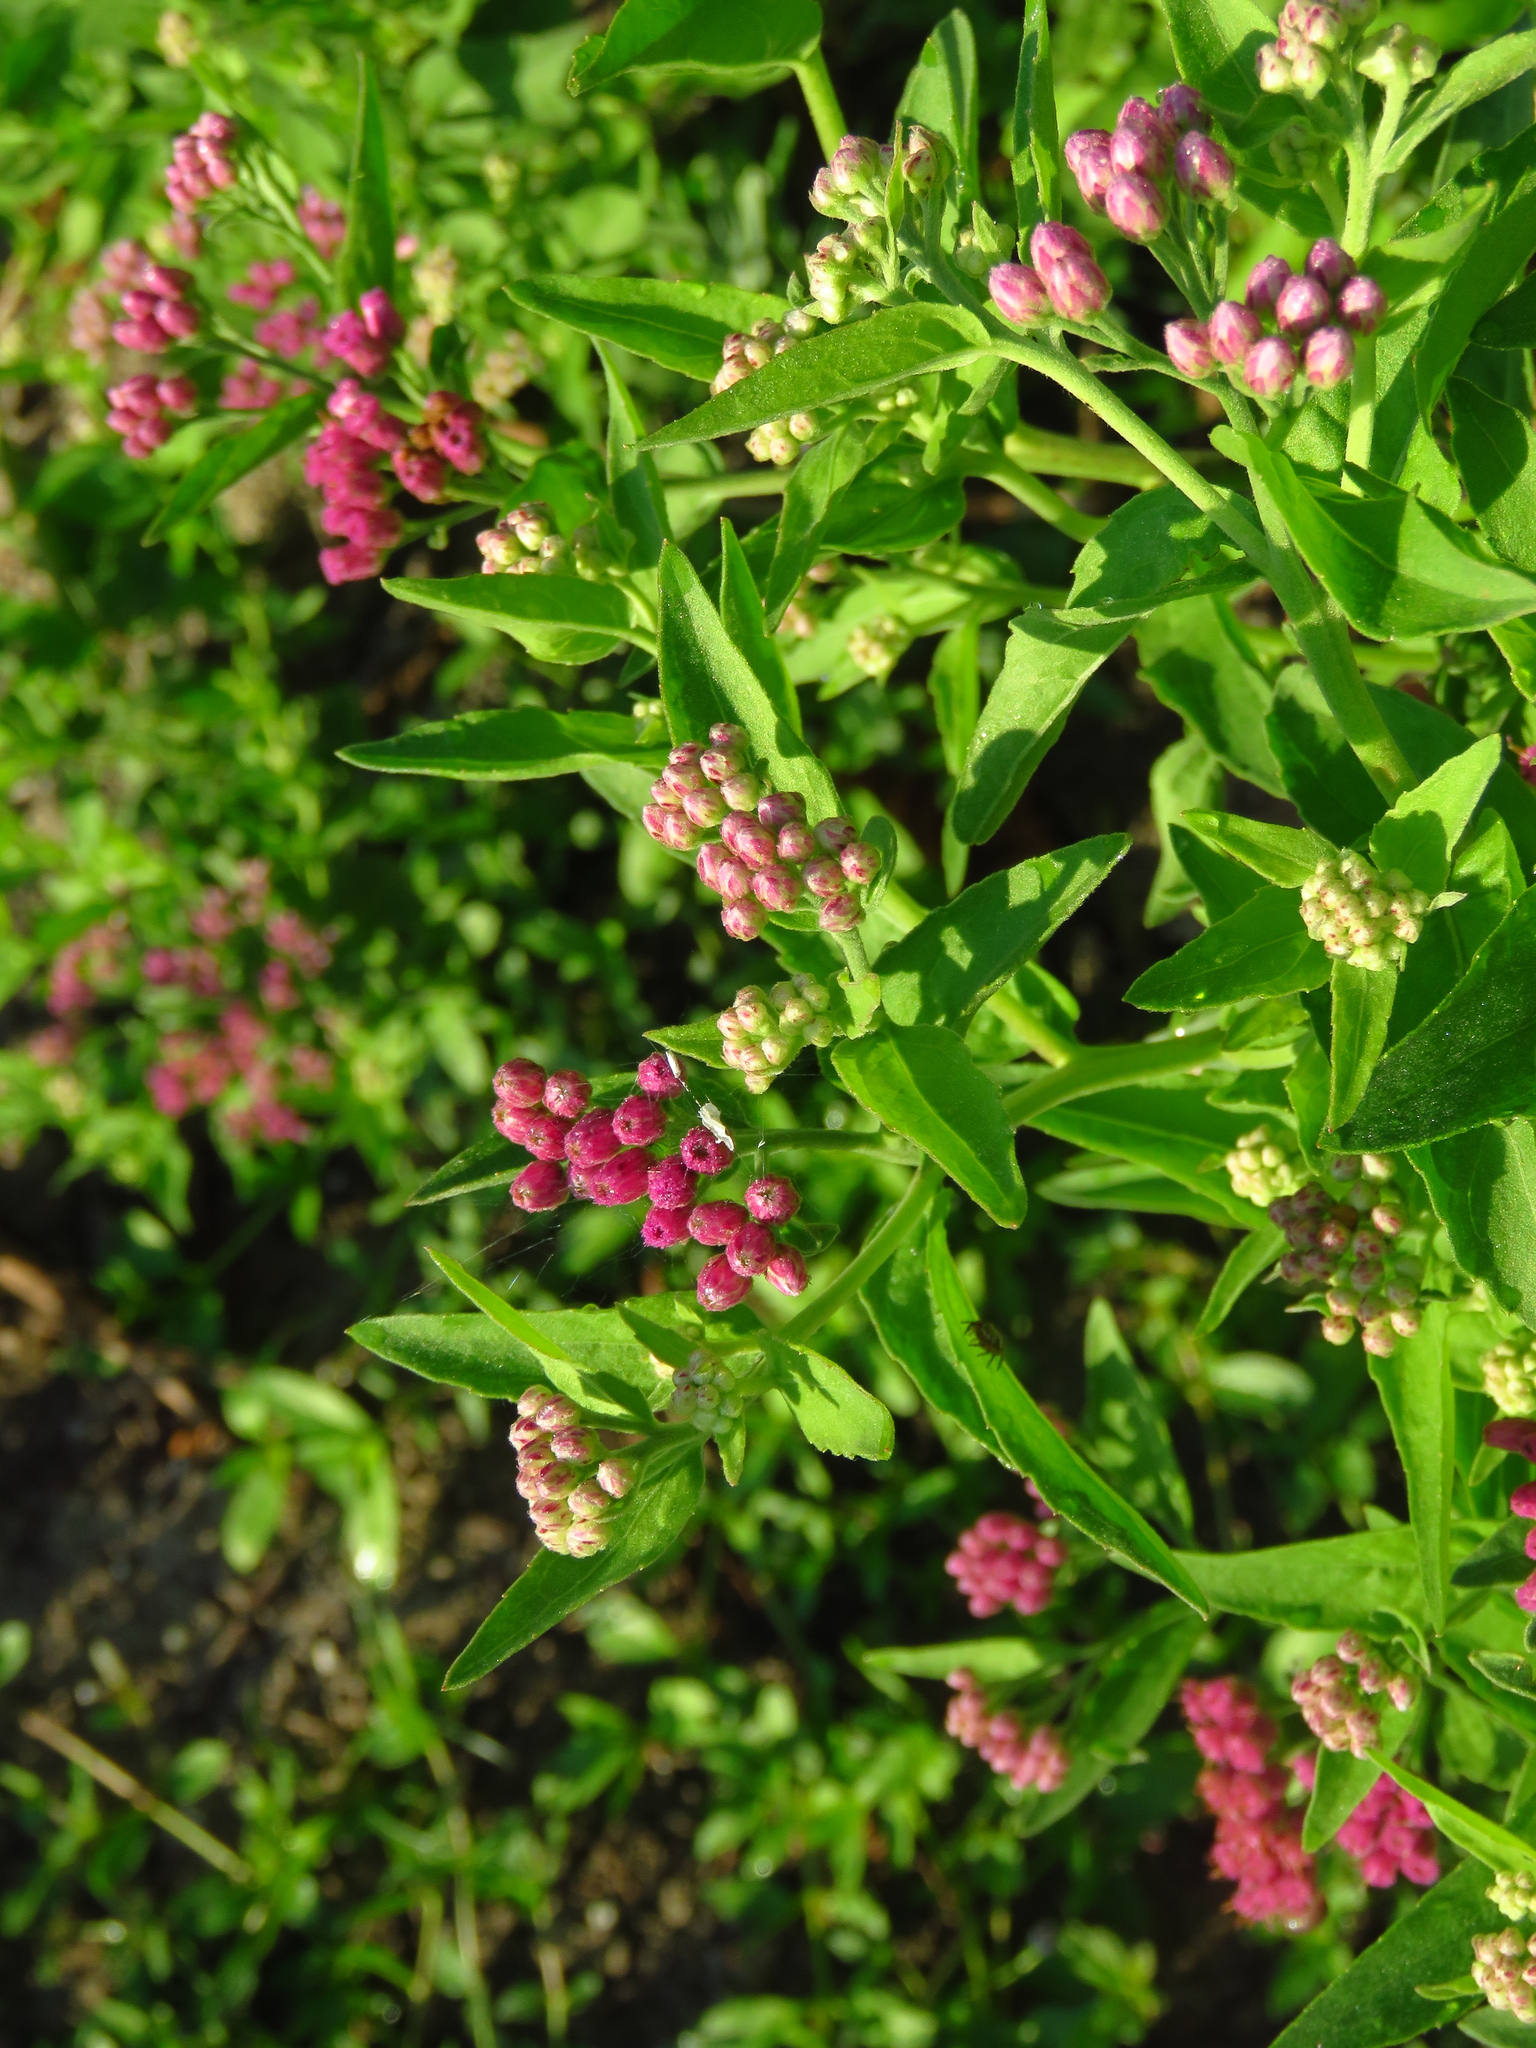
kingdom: Plantae
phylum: Tracheophyta
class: Magnoliopsida
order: Asterales
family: Asteraceae
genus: Pluchea
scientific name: Pluchea odorata
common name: Saltmarsh fleabane
